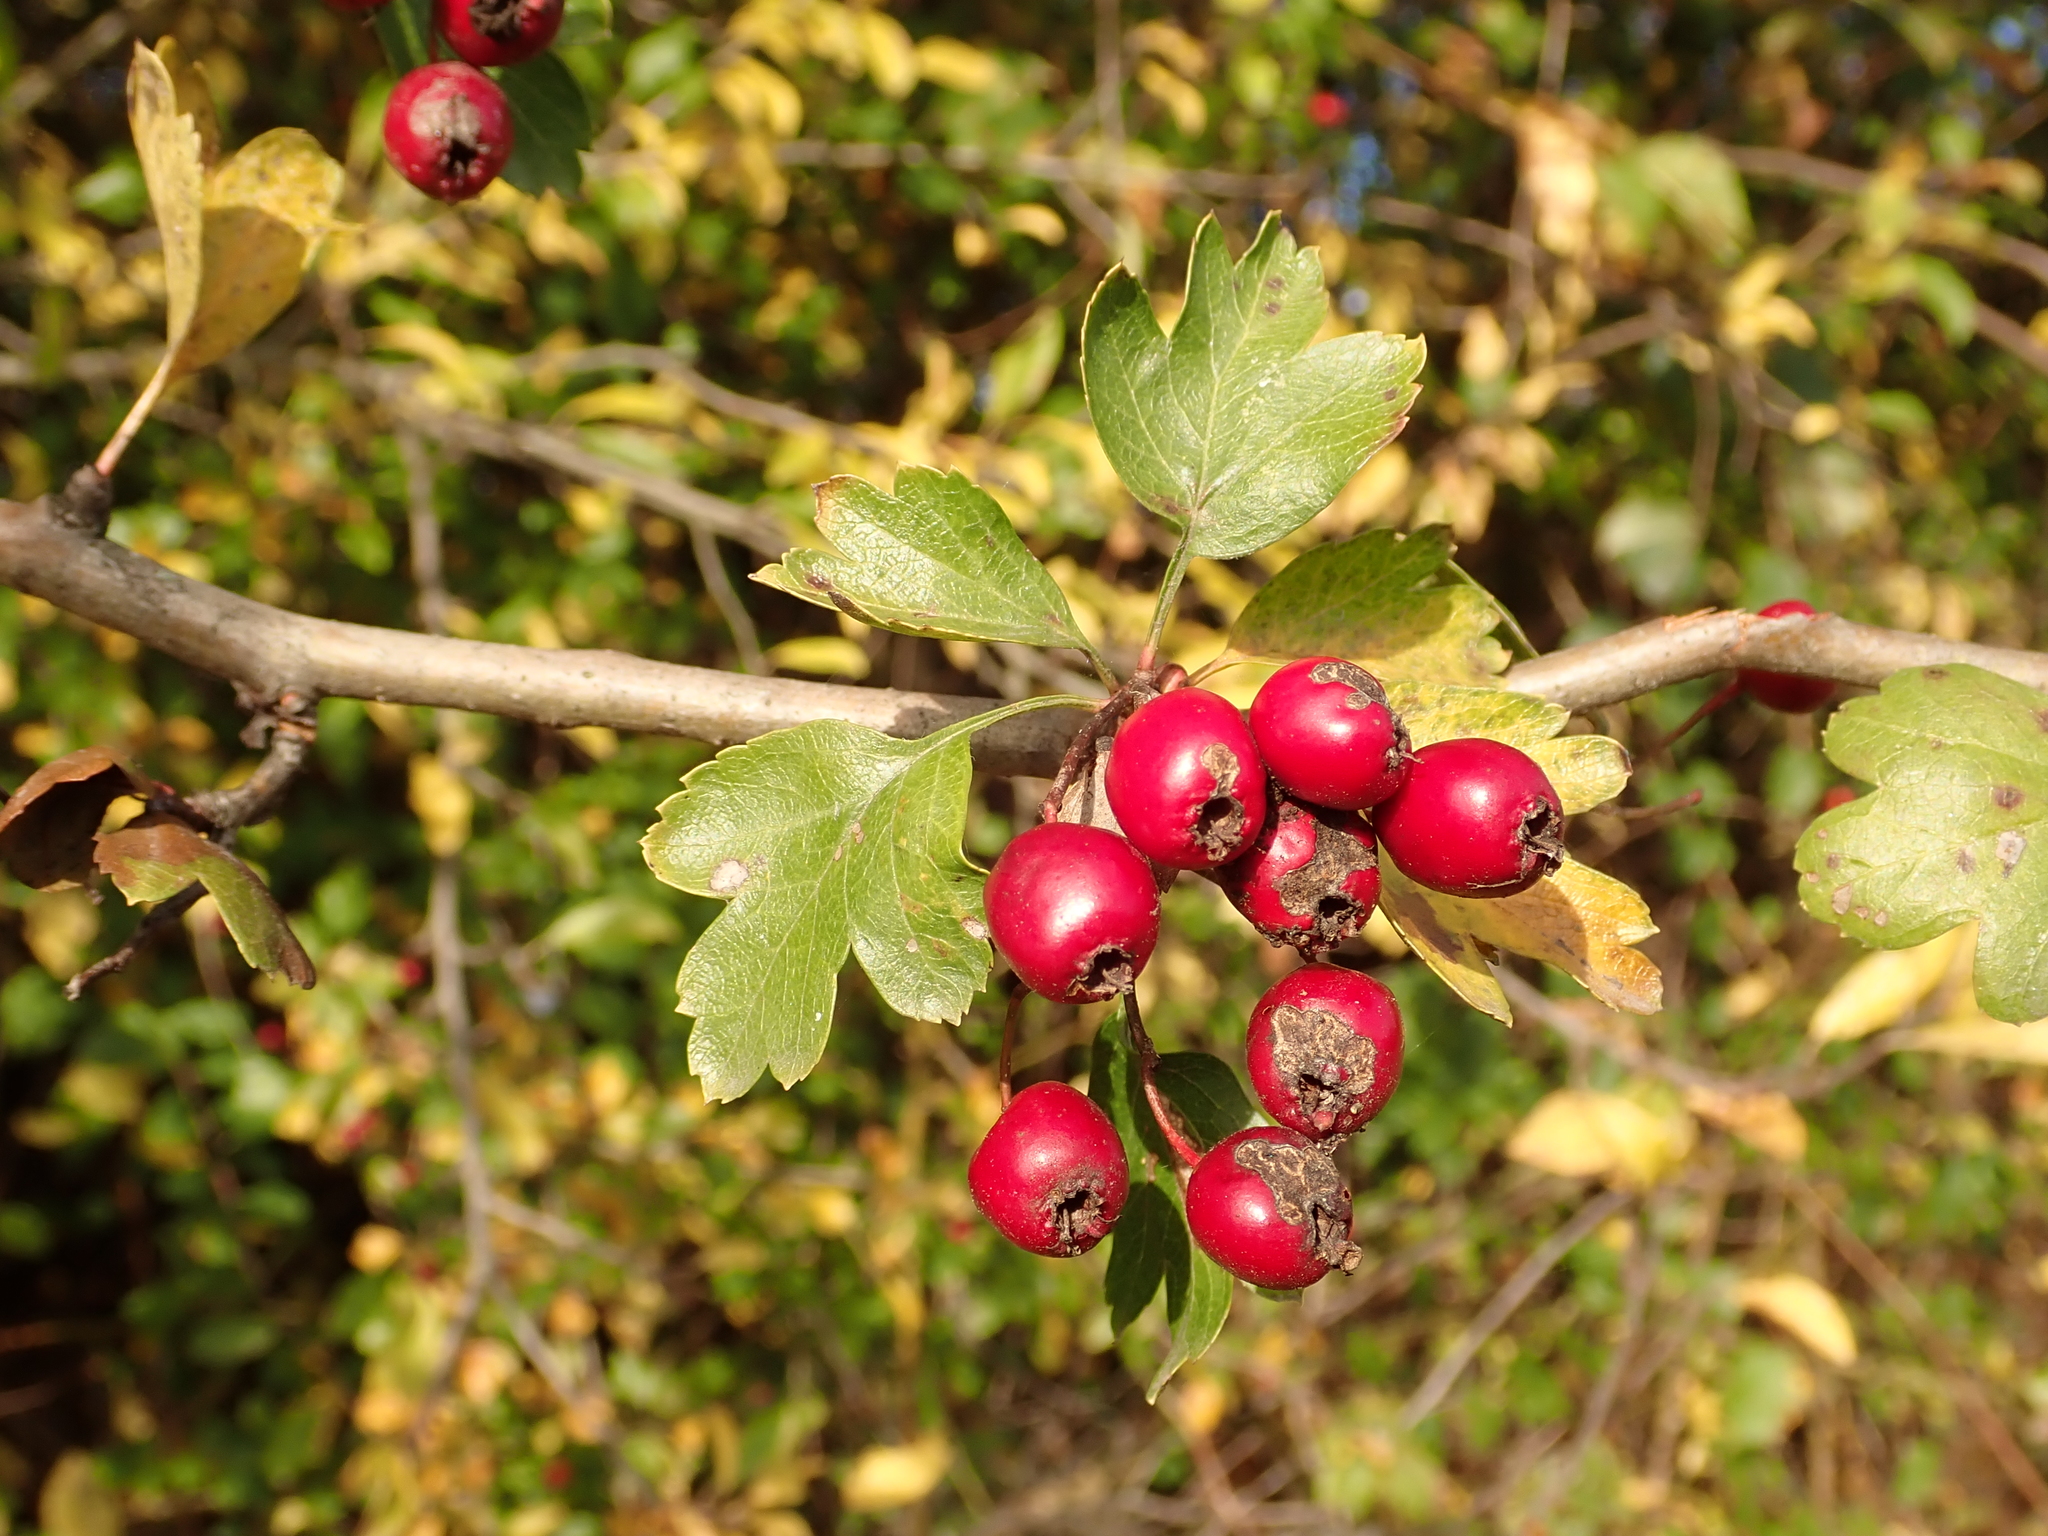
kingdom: Plantae
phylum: Tracheophyta
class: Magnoliopsida
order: Rosales
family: Rosaceae
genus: Crataegus
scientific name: Crataegus monogyna
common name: Hawthorn
